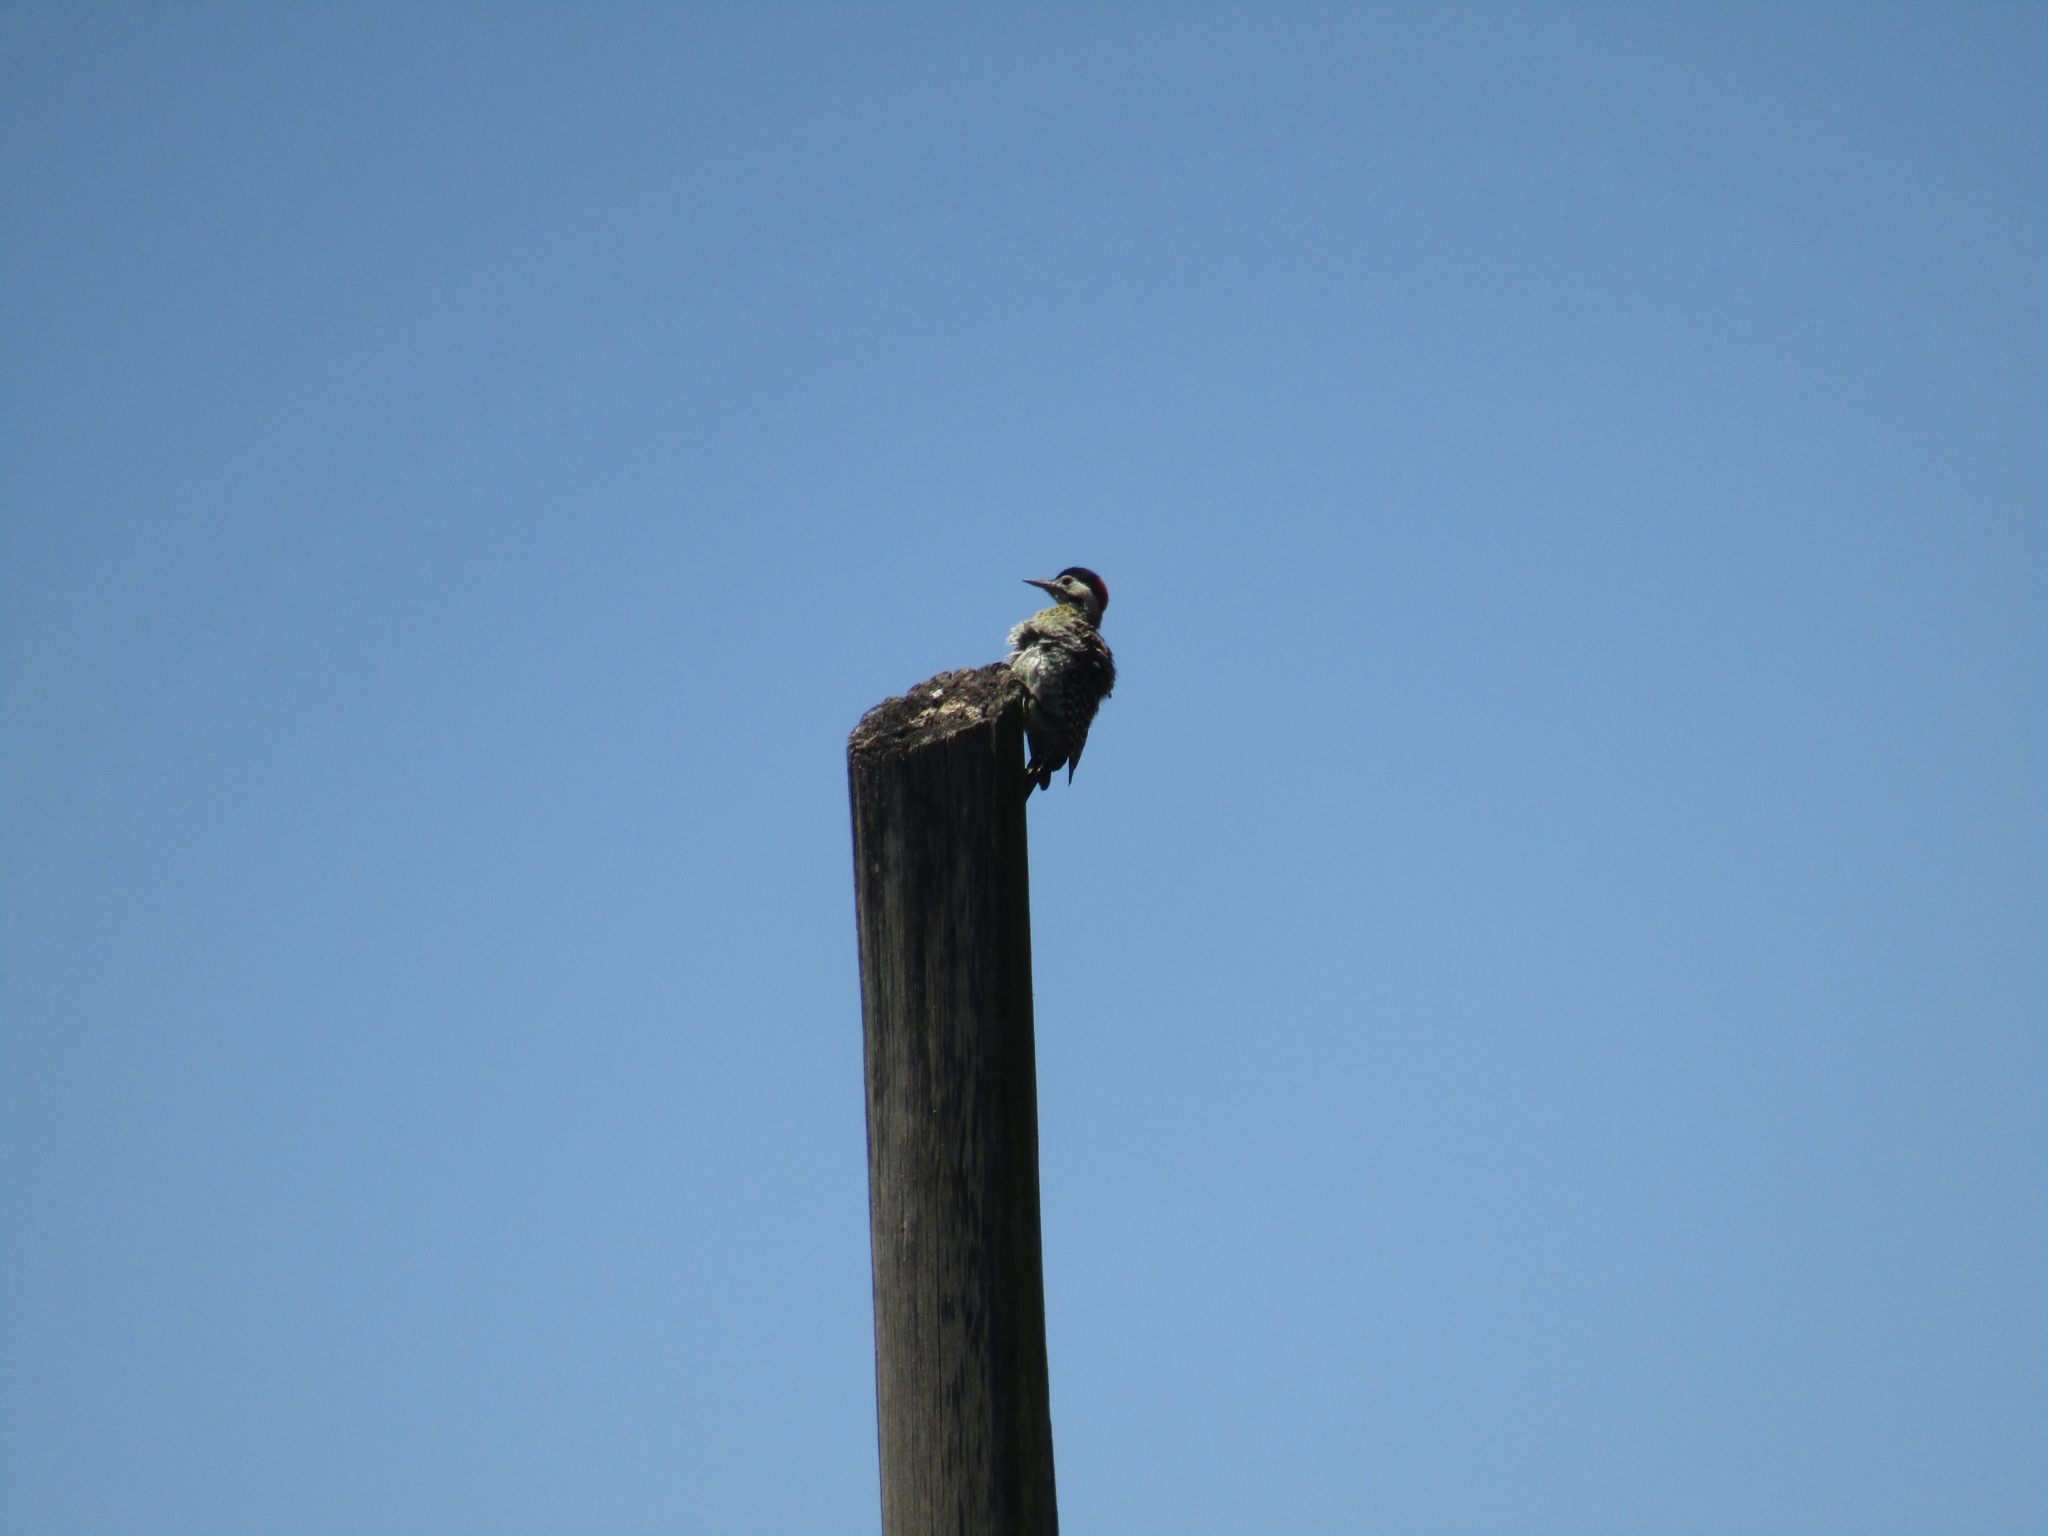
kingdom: Animalia
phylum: Chordata
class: Aves
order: Piciformes
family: Picidae
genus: Colaptes
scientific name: Colaptes melanochloros
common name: Green-barred woodpecker
